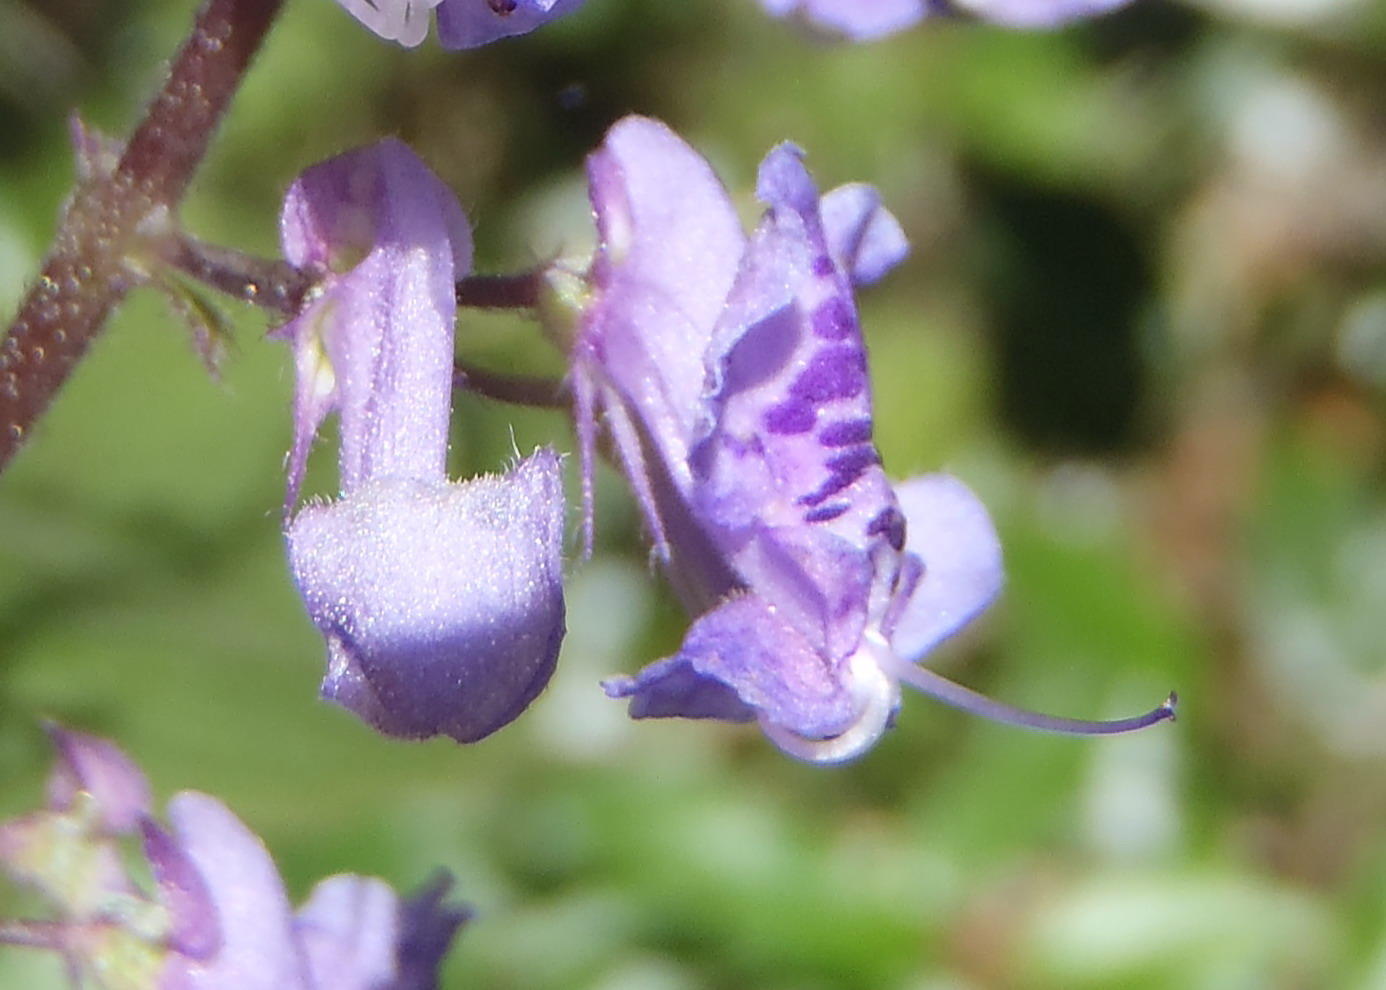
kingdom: Plantae
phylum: Tracheophyta
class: Magnoliopsida
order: Lamiales
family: Lamiaceae
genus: Plectranthus
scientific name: Plectranthus fruticosus
